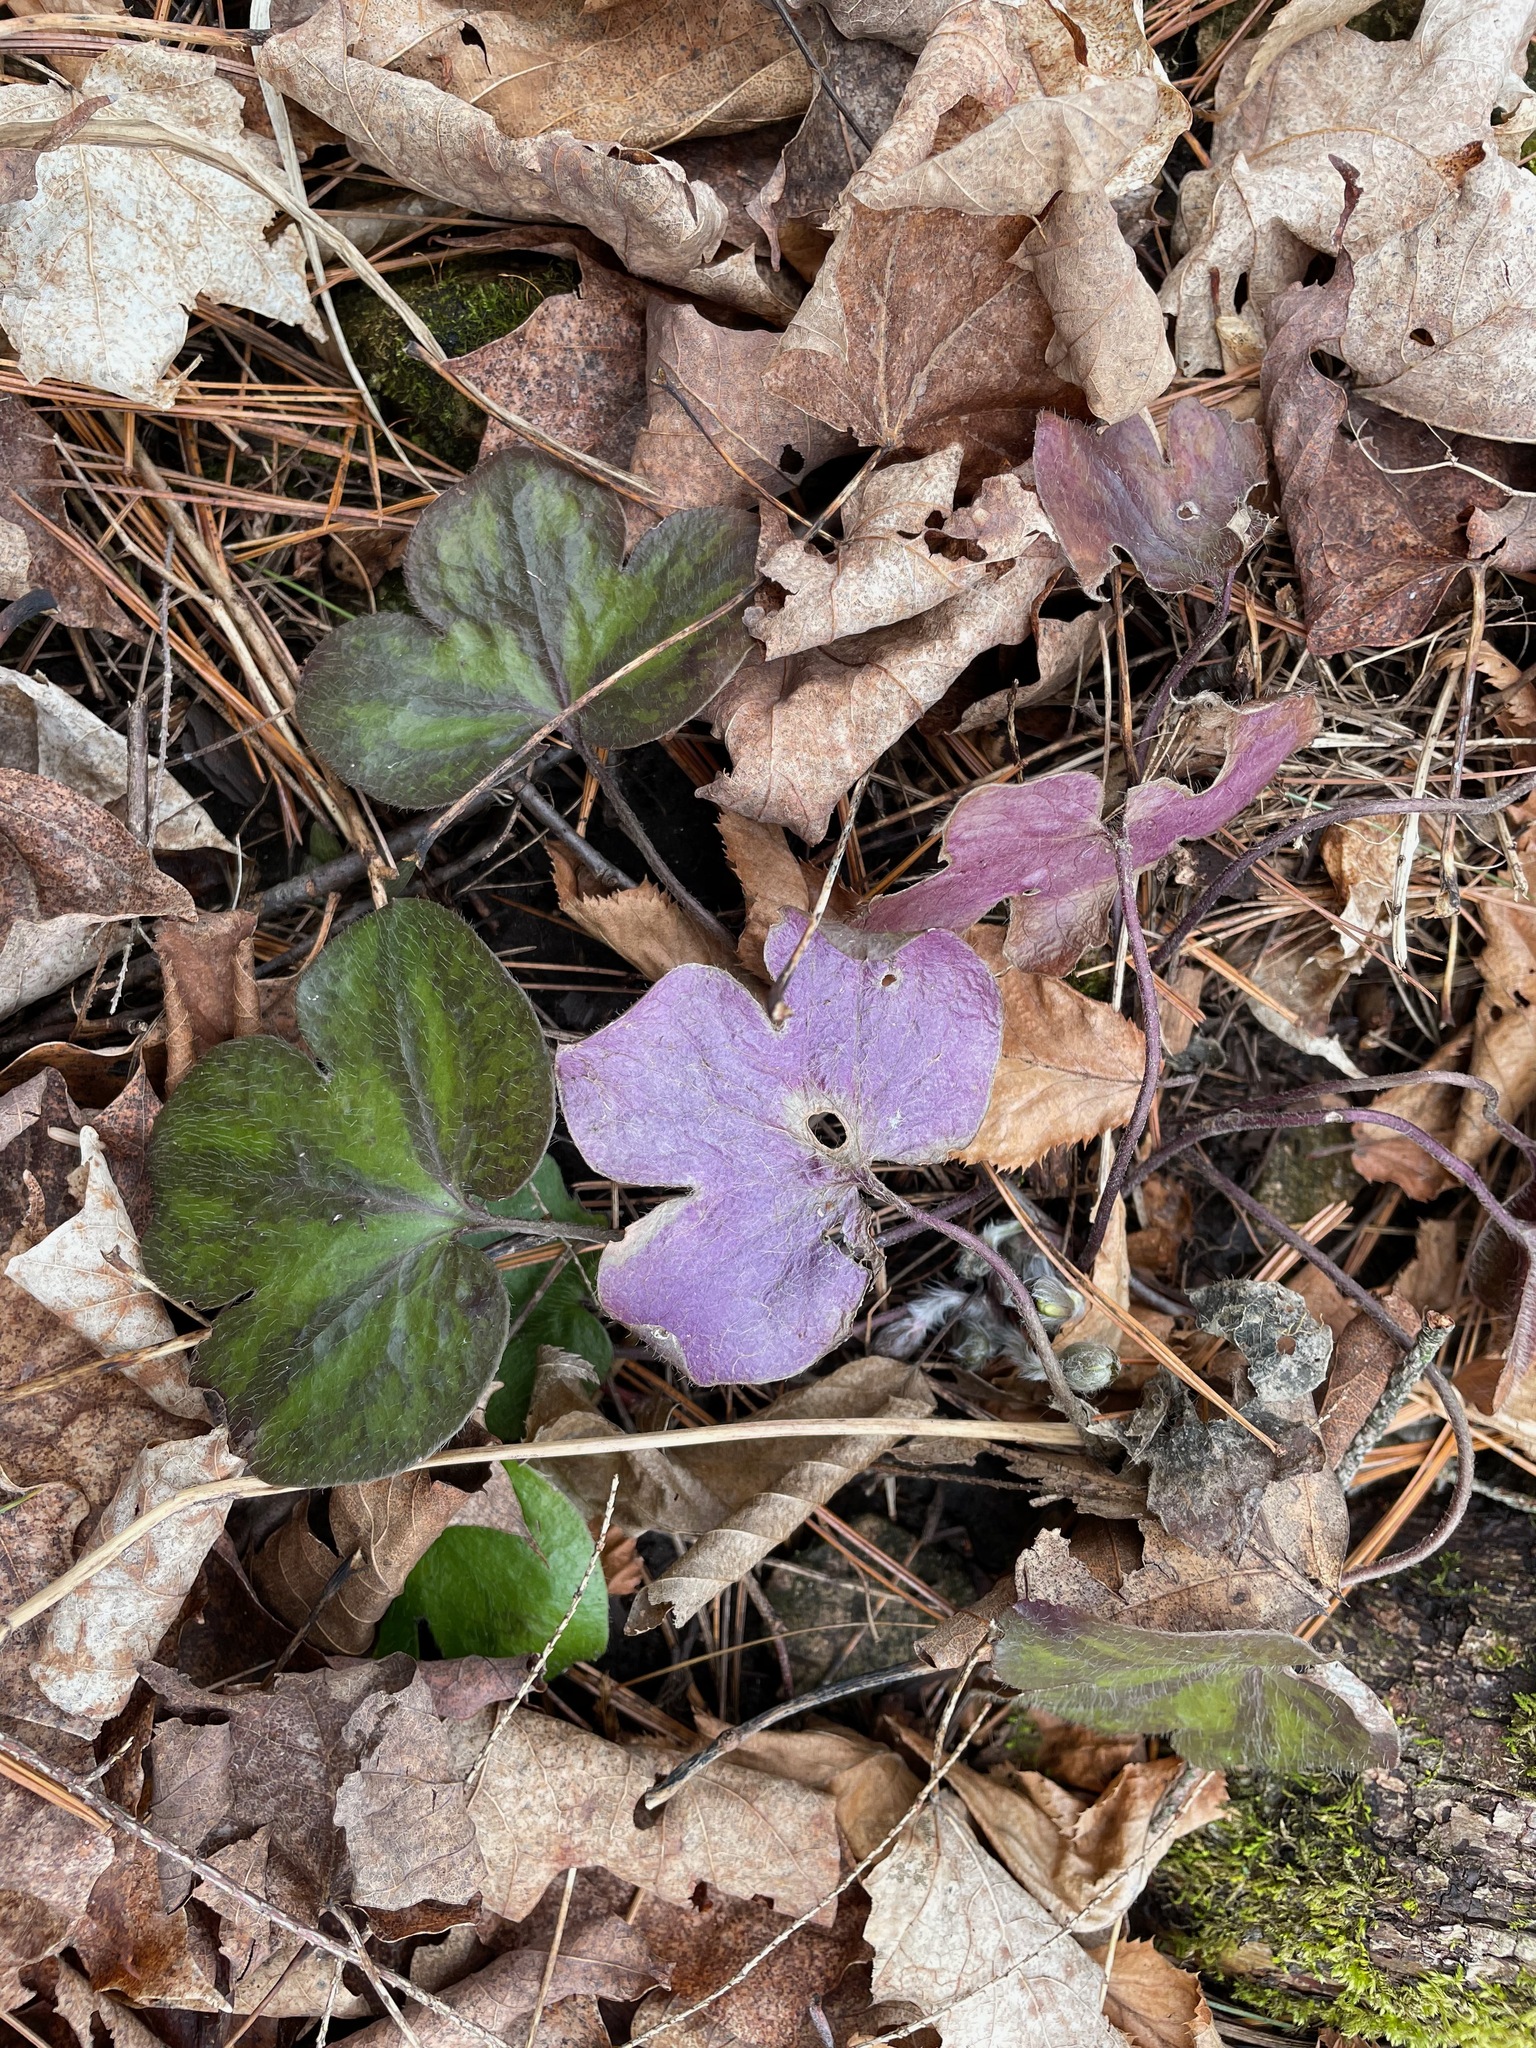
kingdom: Plantae
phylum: Tracheophyta
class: Magnoliopsida
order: Ranunculales
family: Ranunculaceae
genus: Hepatica
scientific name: Hepatica americana
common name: American hepatica
